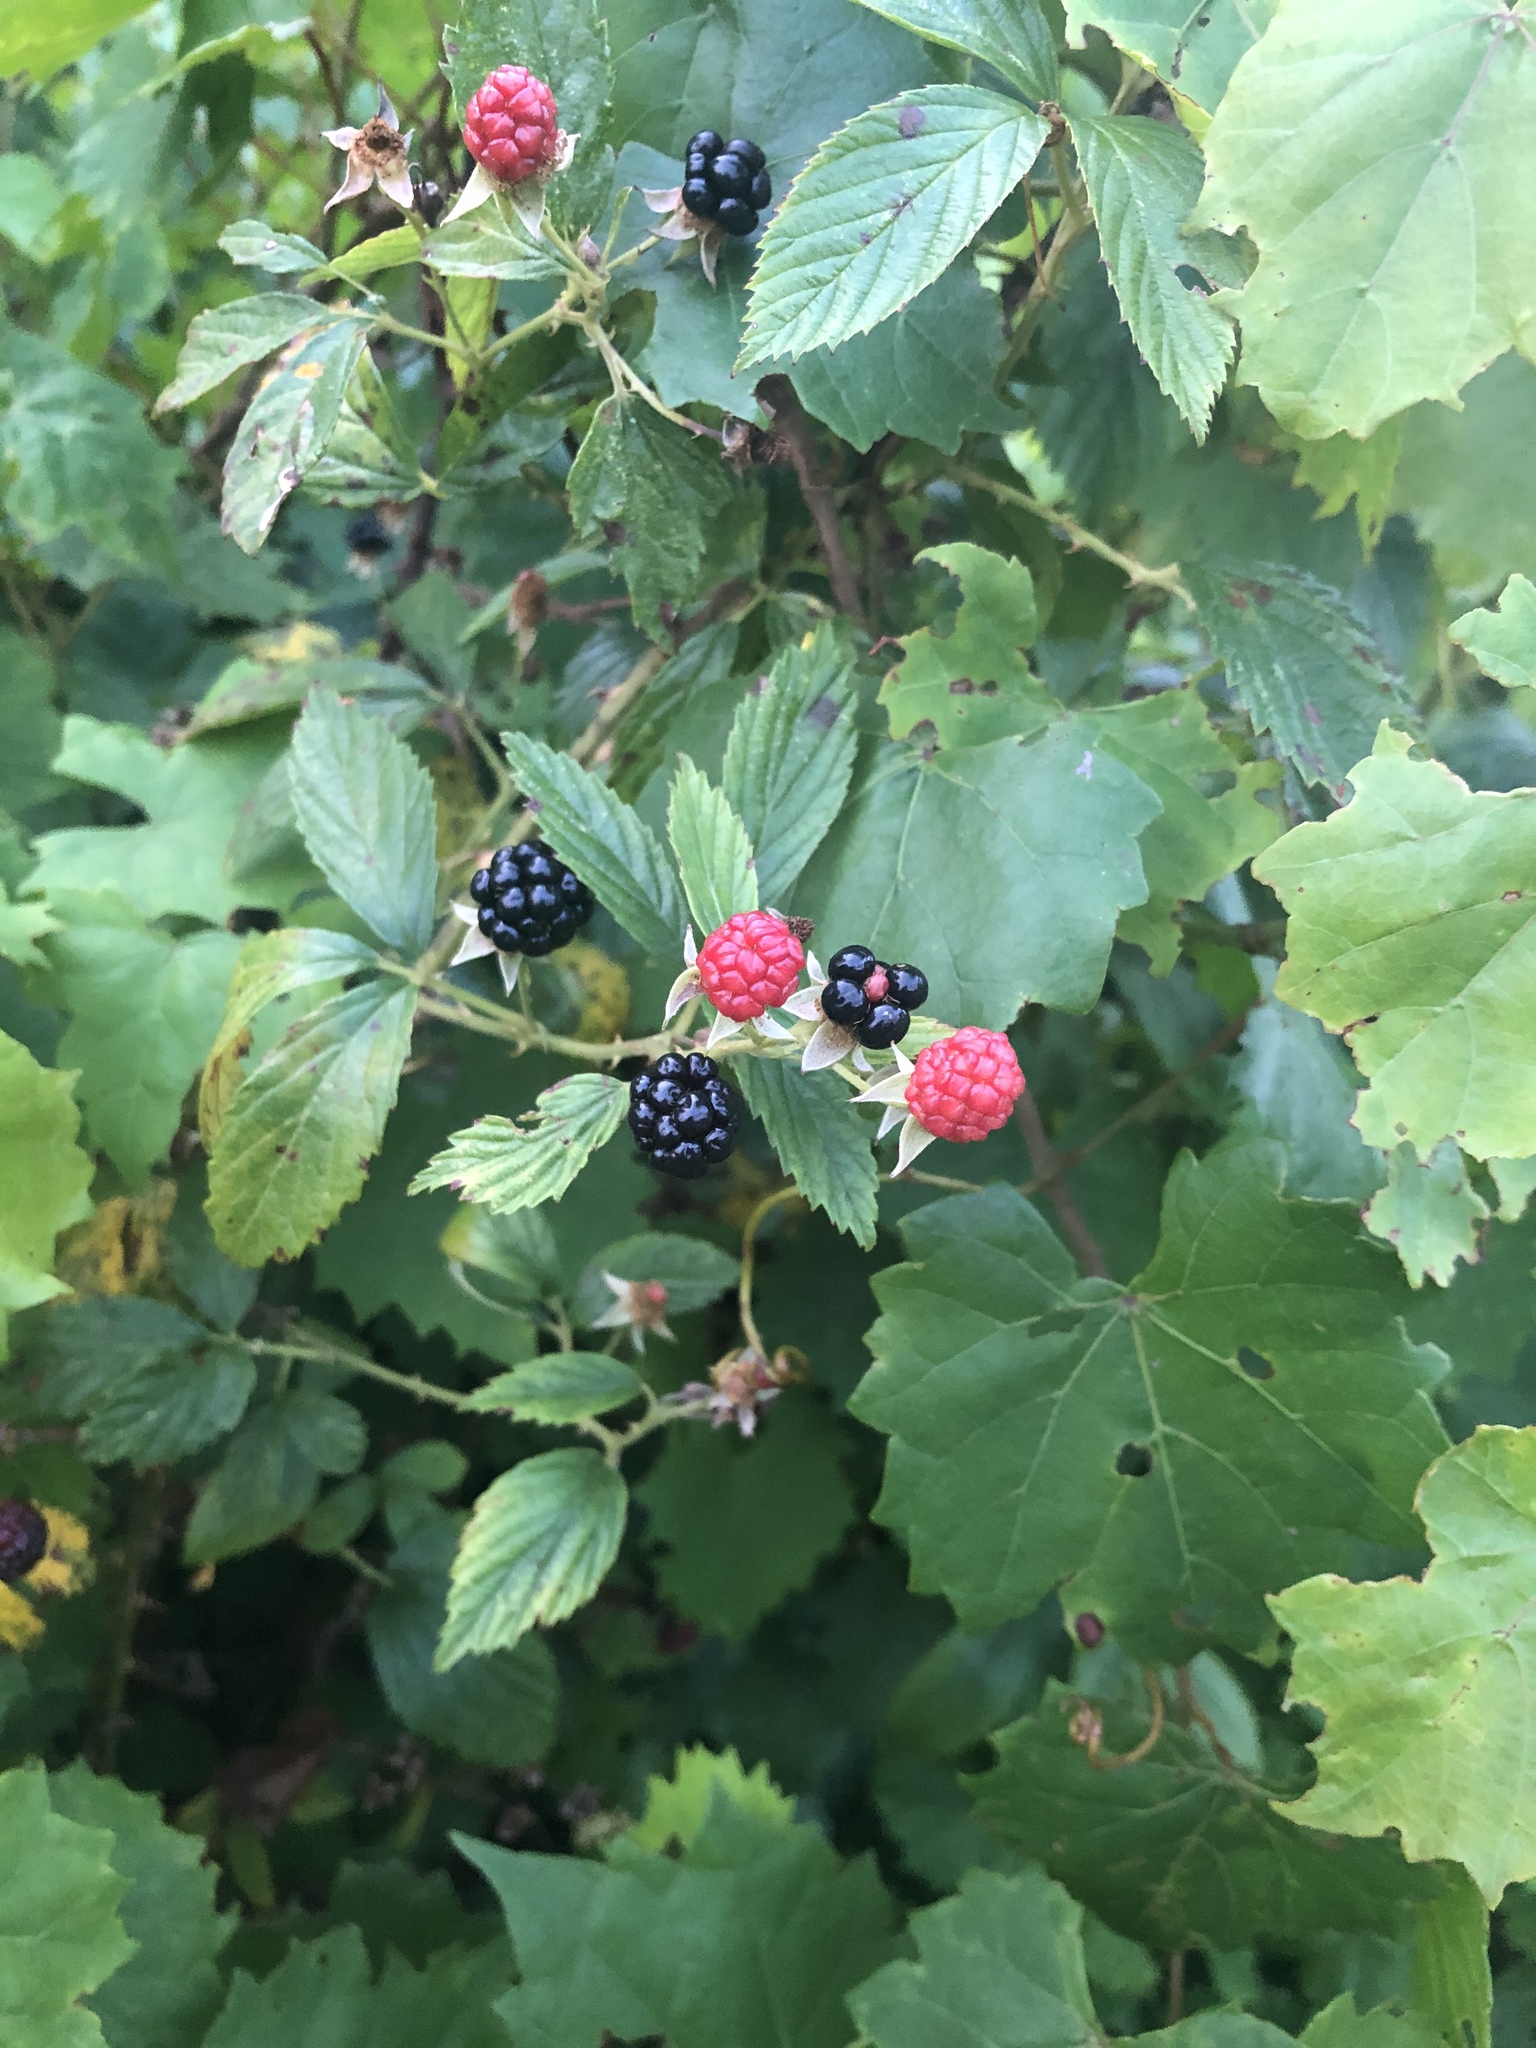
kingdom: Plantae
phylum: Tracheophyta
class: Magnoliopsida
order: Rosales
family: Rosaceae
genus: Rubus
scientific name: Rubus pensilvanicus
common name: Pennsylvania blackberry
